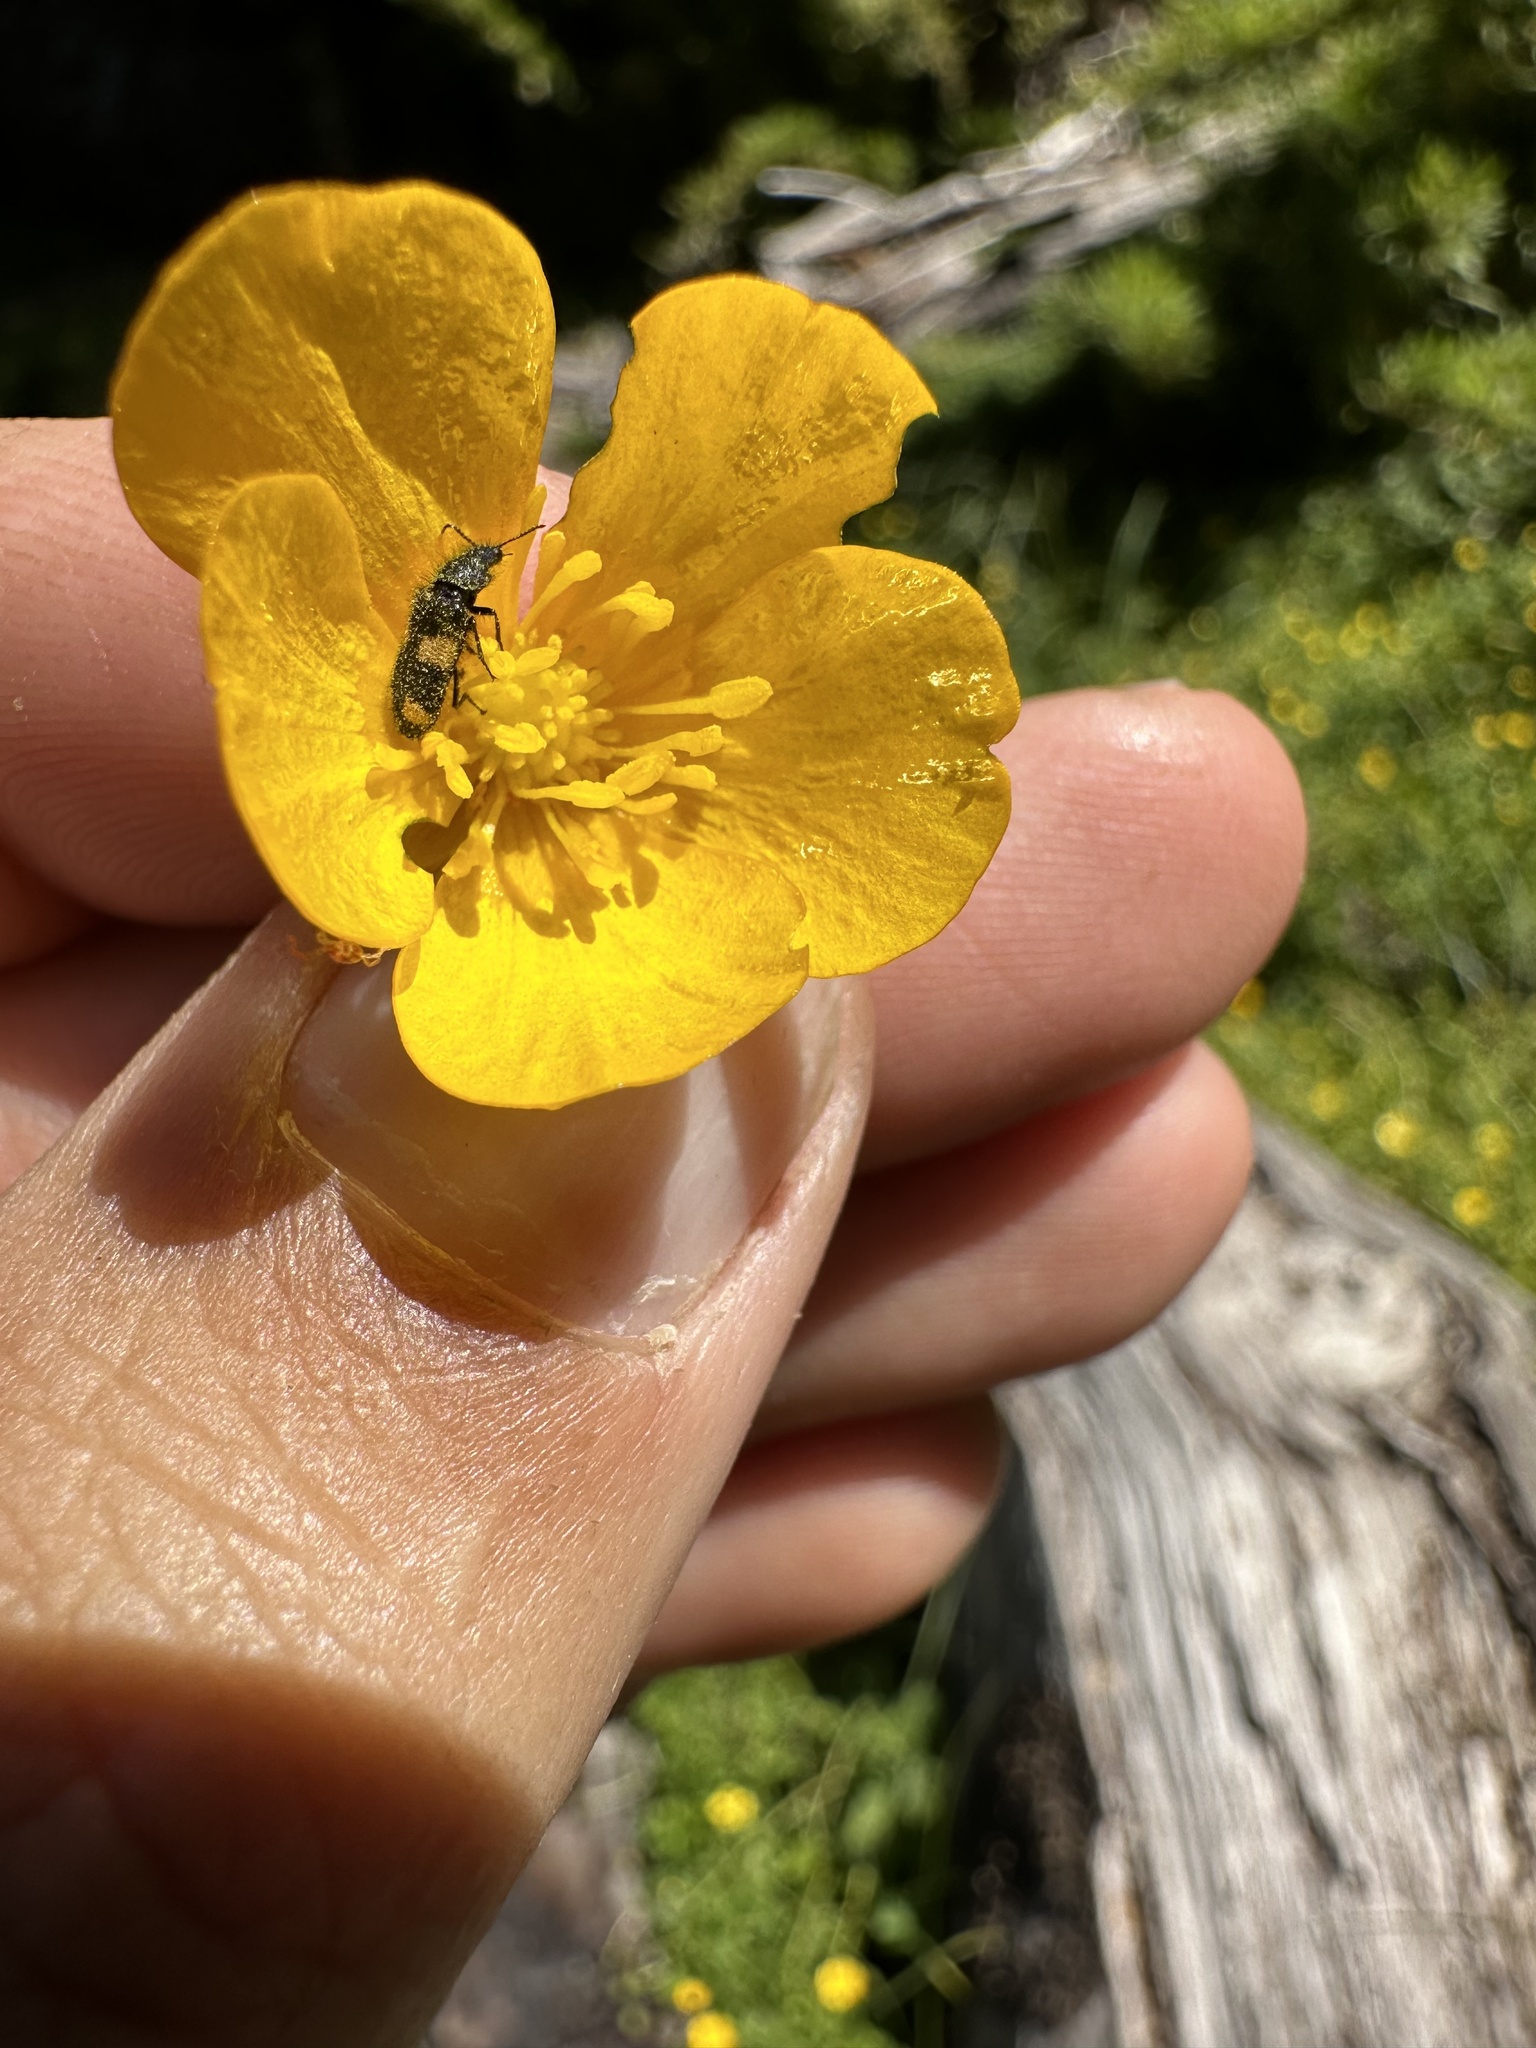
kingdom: Animalia
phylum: Arthropoda
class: Insecta
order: Coleoptera
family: Melyridae
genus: Arthrobrachus
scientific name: Arthrobrachus
